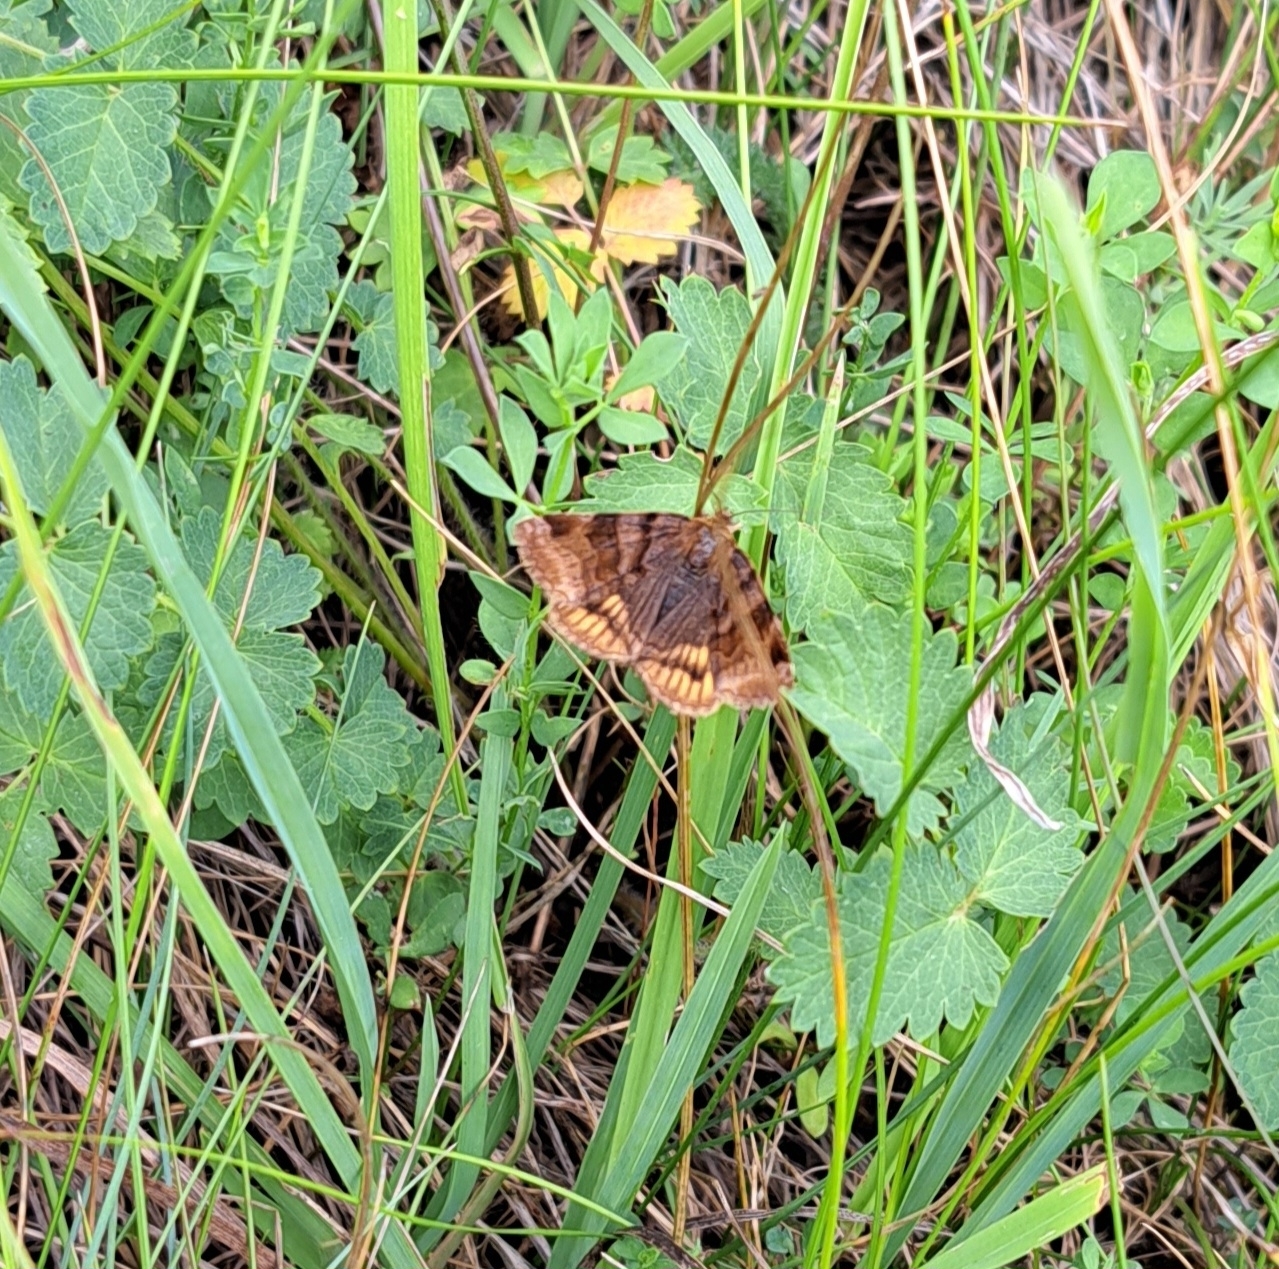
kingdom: Animalia
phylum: Arthropoda
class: Insecta
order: Lepidoptera
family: Erebidae
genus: Euclidia
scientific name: Euclidia glyphica
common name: Burnet companion
